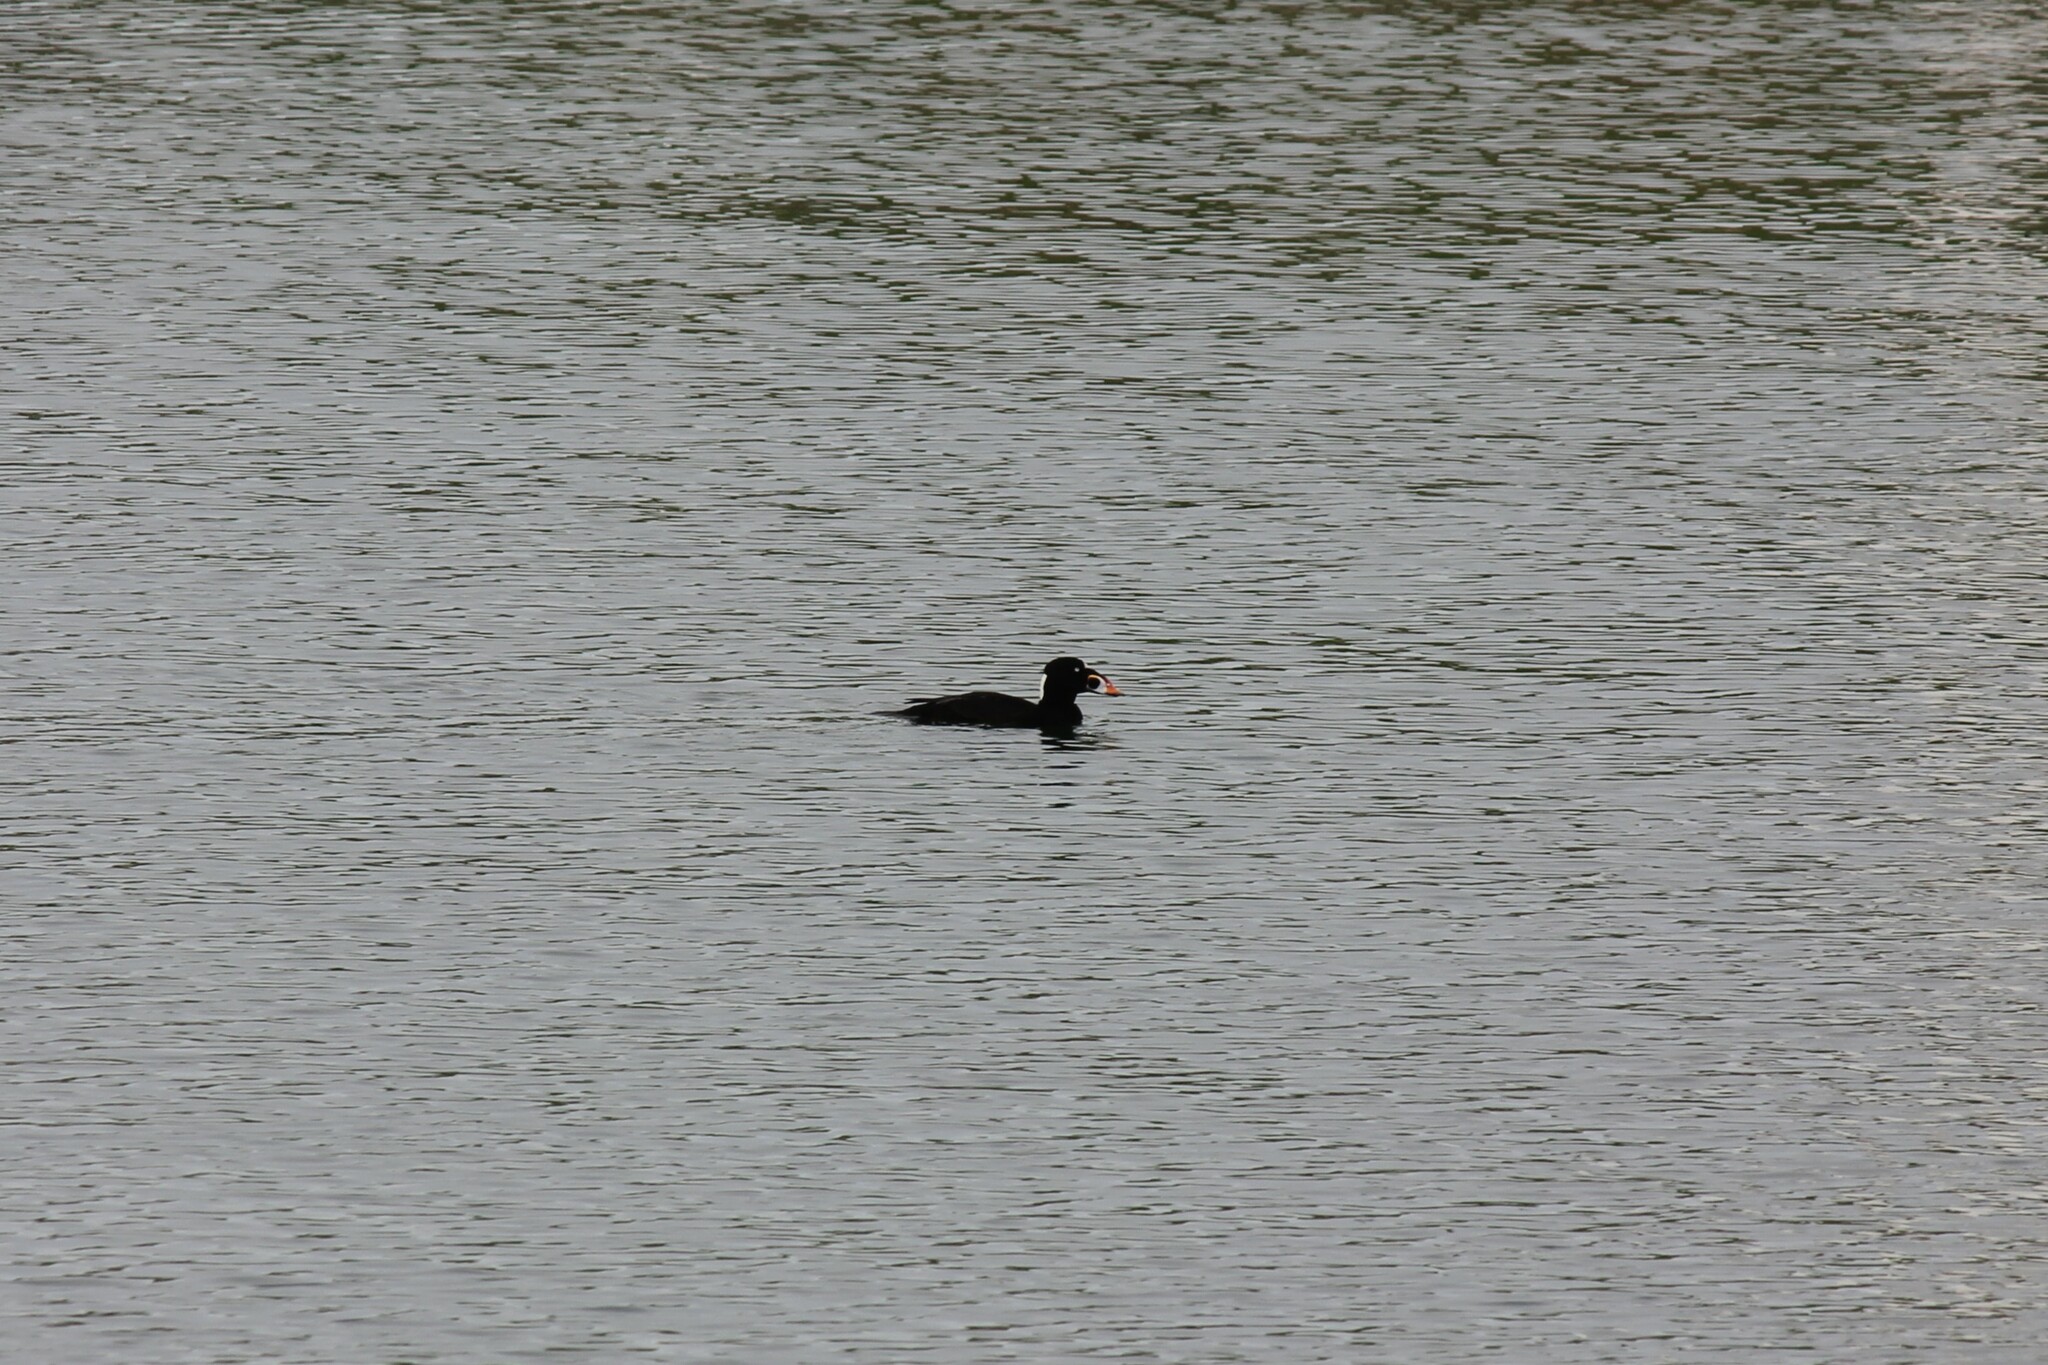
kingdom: Animalia
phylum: Chordata
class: Aves
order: Anseriformes
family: Anatidae
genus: Melanitta
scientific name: Melanitta perspicillata
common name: Surf scoter
